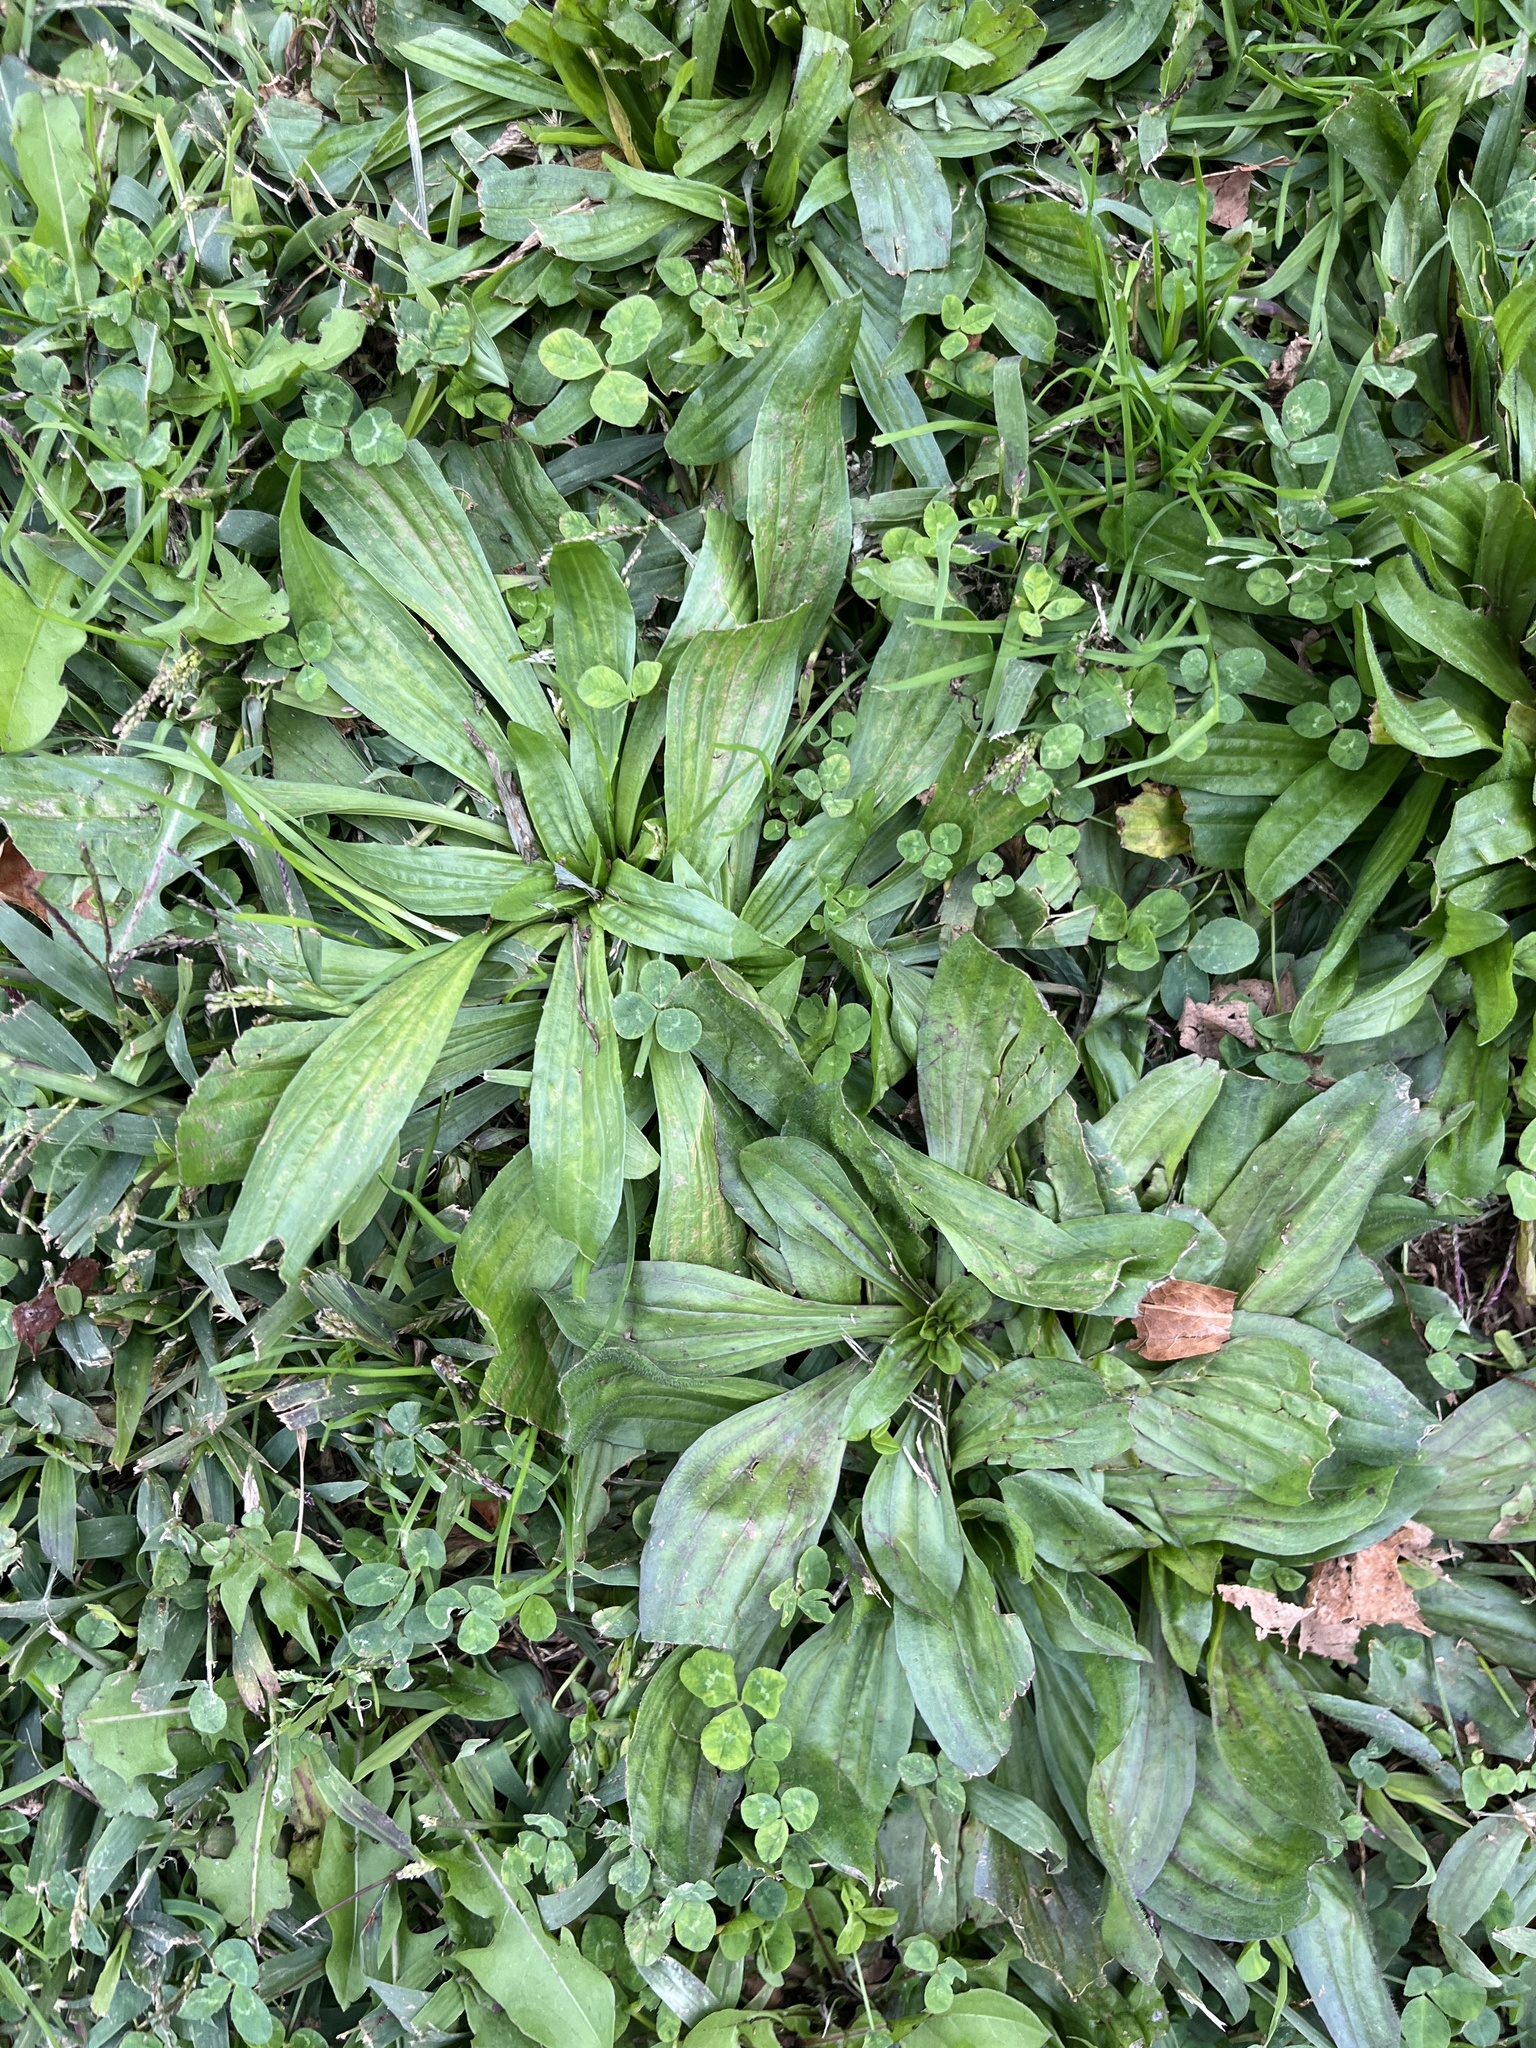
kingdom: Plantae
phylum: Tracheophyta
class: Magnoliopsida
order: Lamiales
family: Plantaginaceae
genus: Plantago
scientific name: Plantago lanceolata
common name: Ribwort plantain
